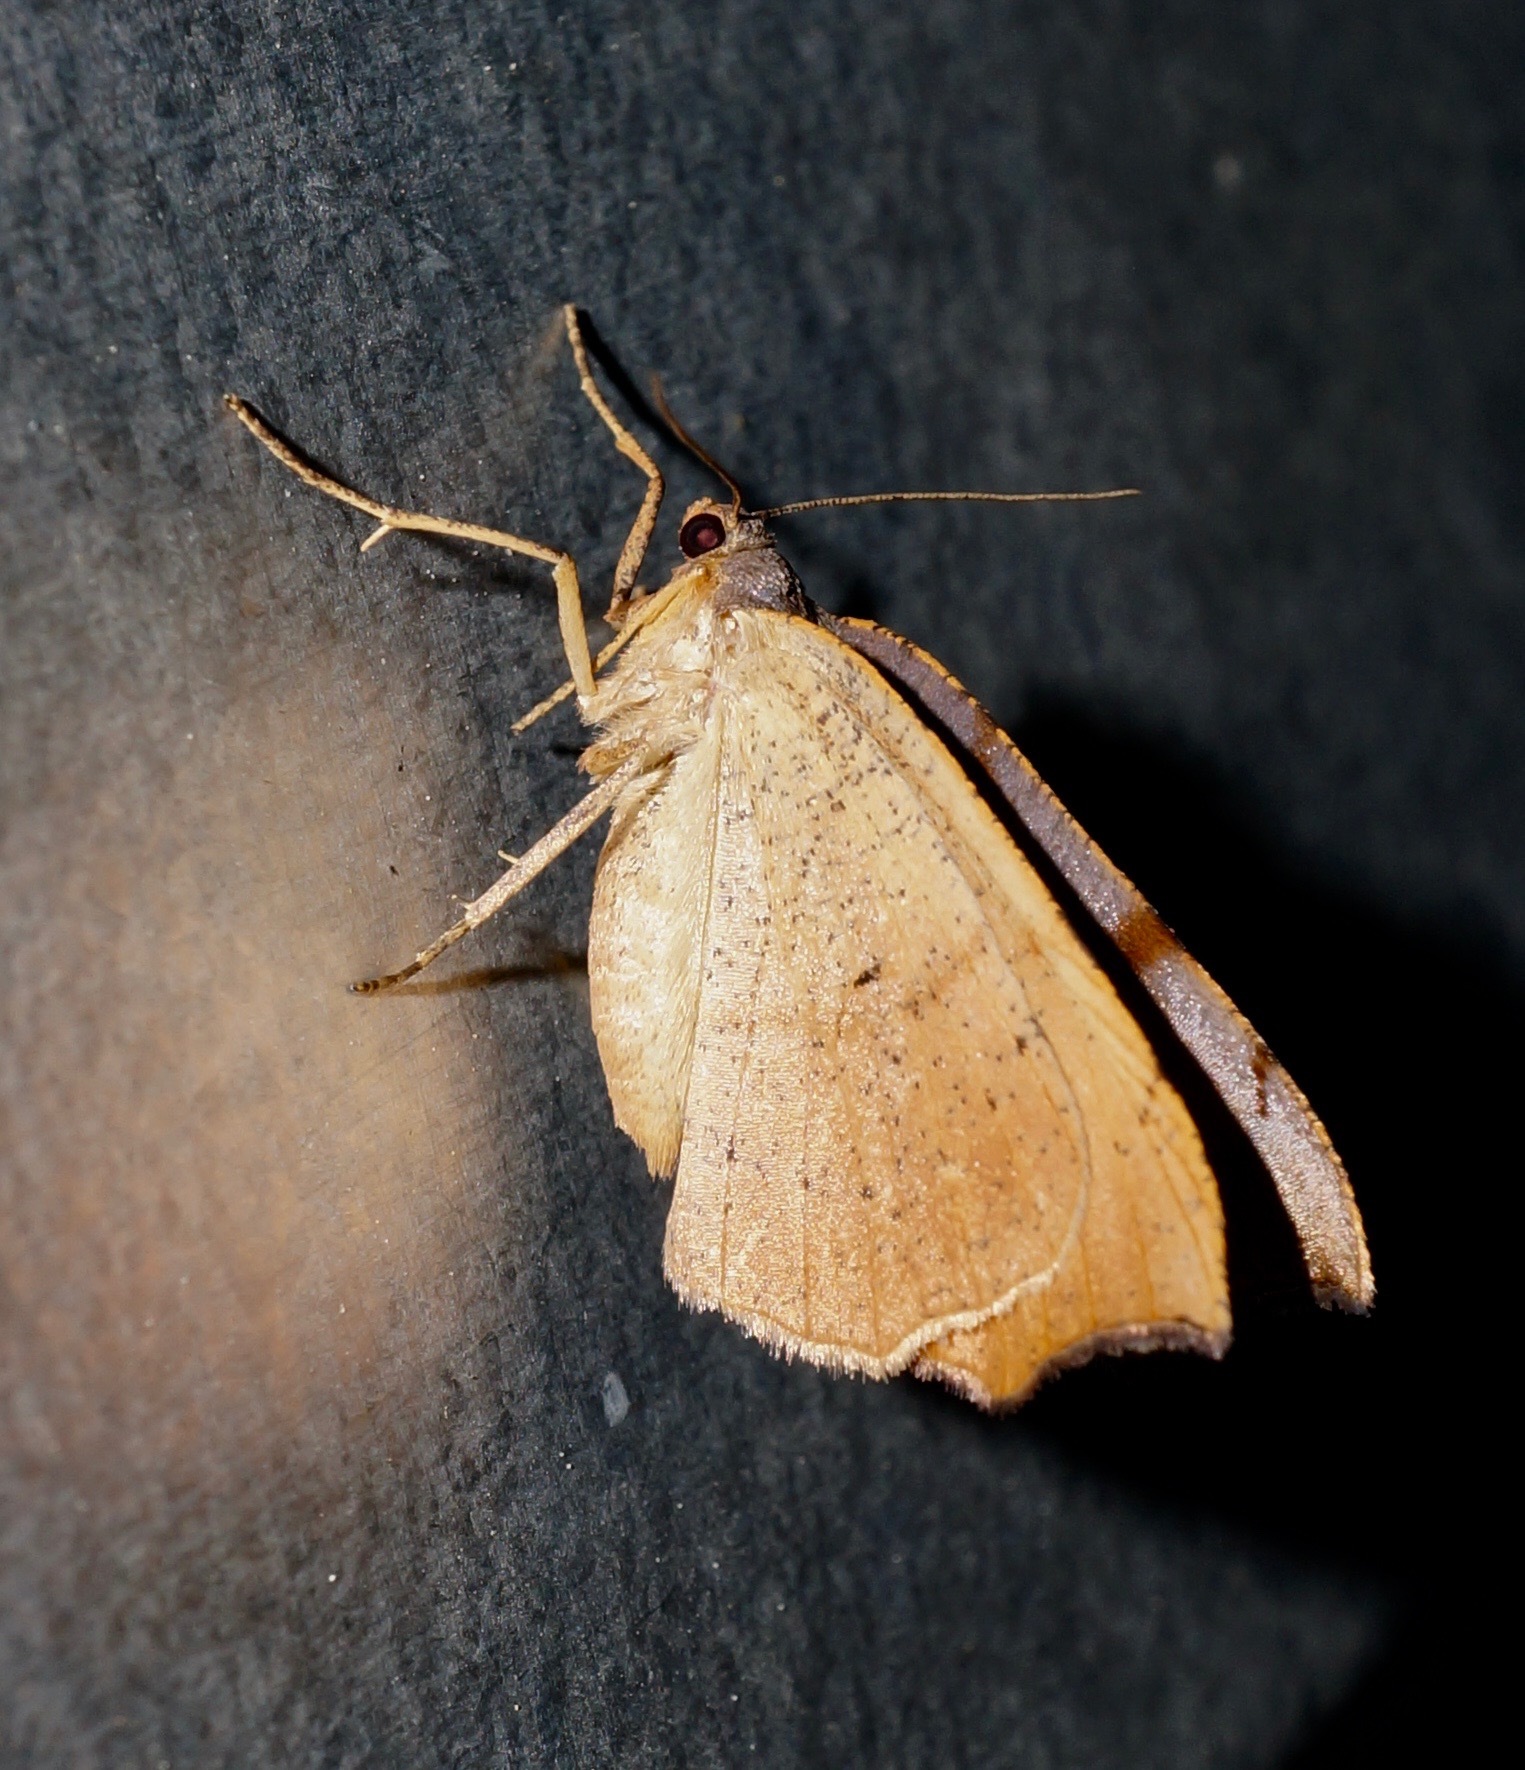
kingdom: Animalia
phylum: Arthropoda
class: Insecta
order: Lepidoptera
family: Geometridae
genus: Sestra
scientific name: Sestra flexata
